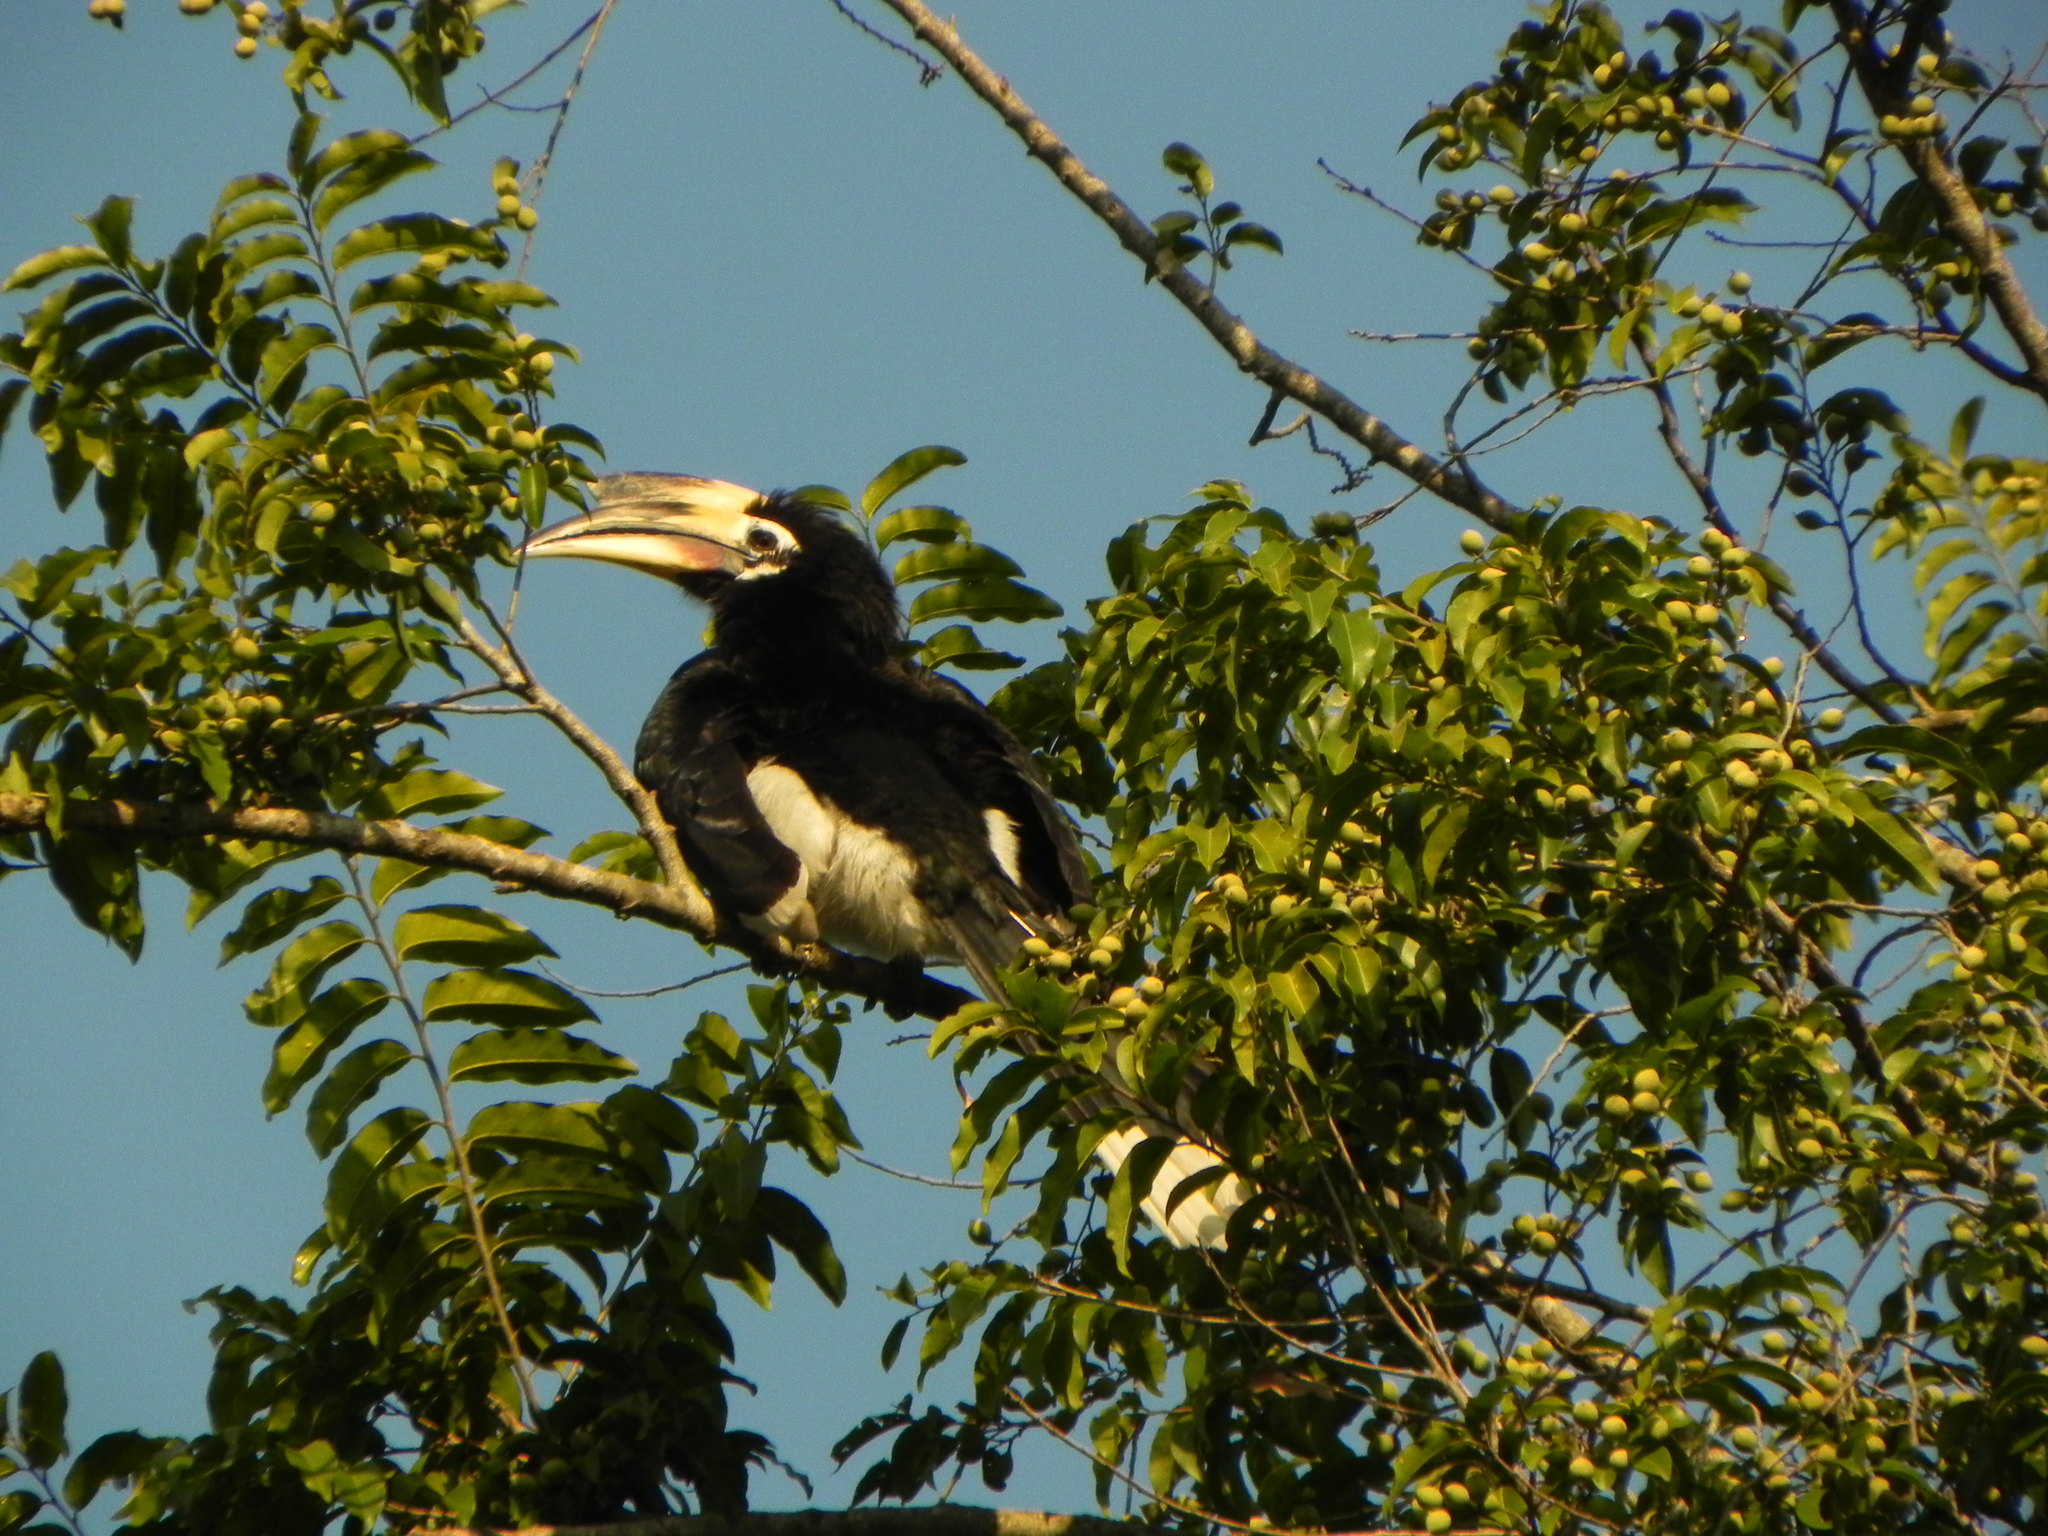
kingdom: Animalia
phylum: Chordata
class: Aves
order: Bucerotiformes
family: Bucerotidae
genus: Anthracoceros
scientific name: Anthracoceros albirostris
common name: Oriental pied-hornbill
